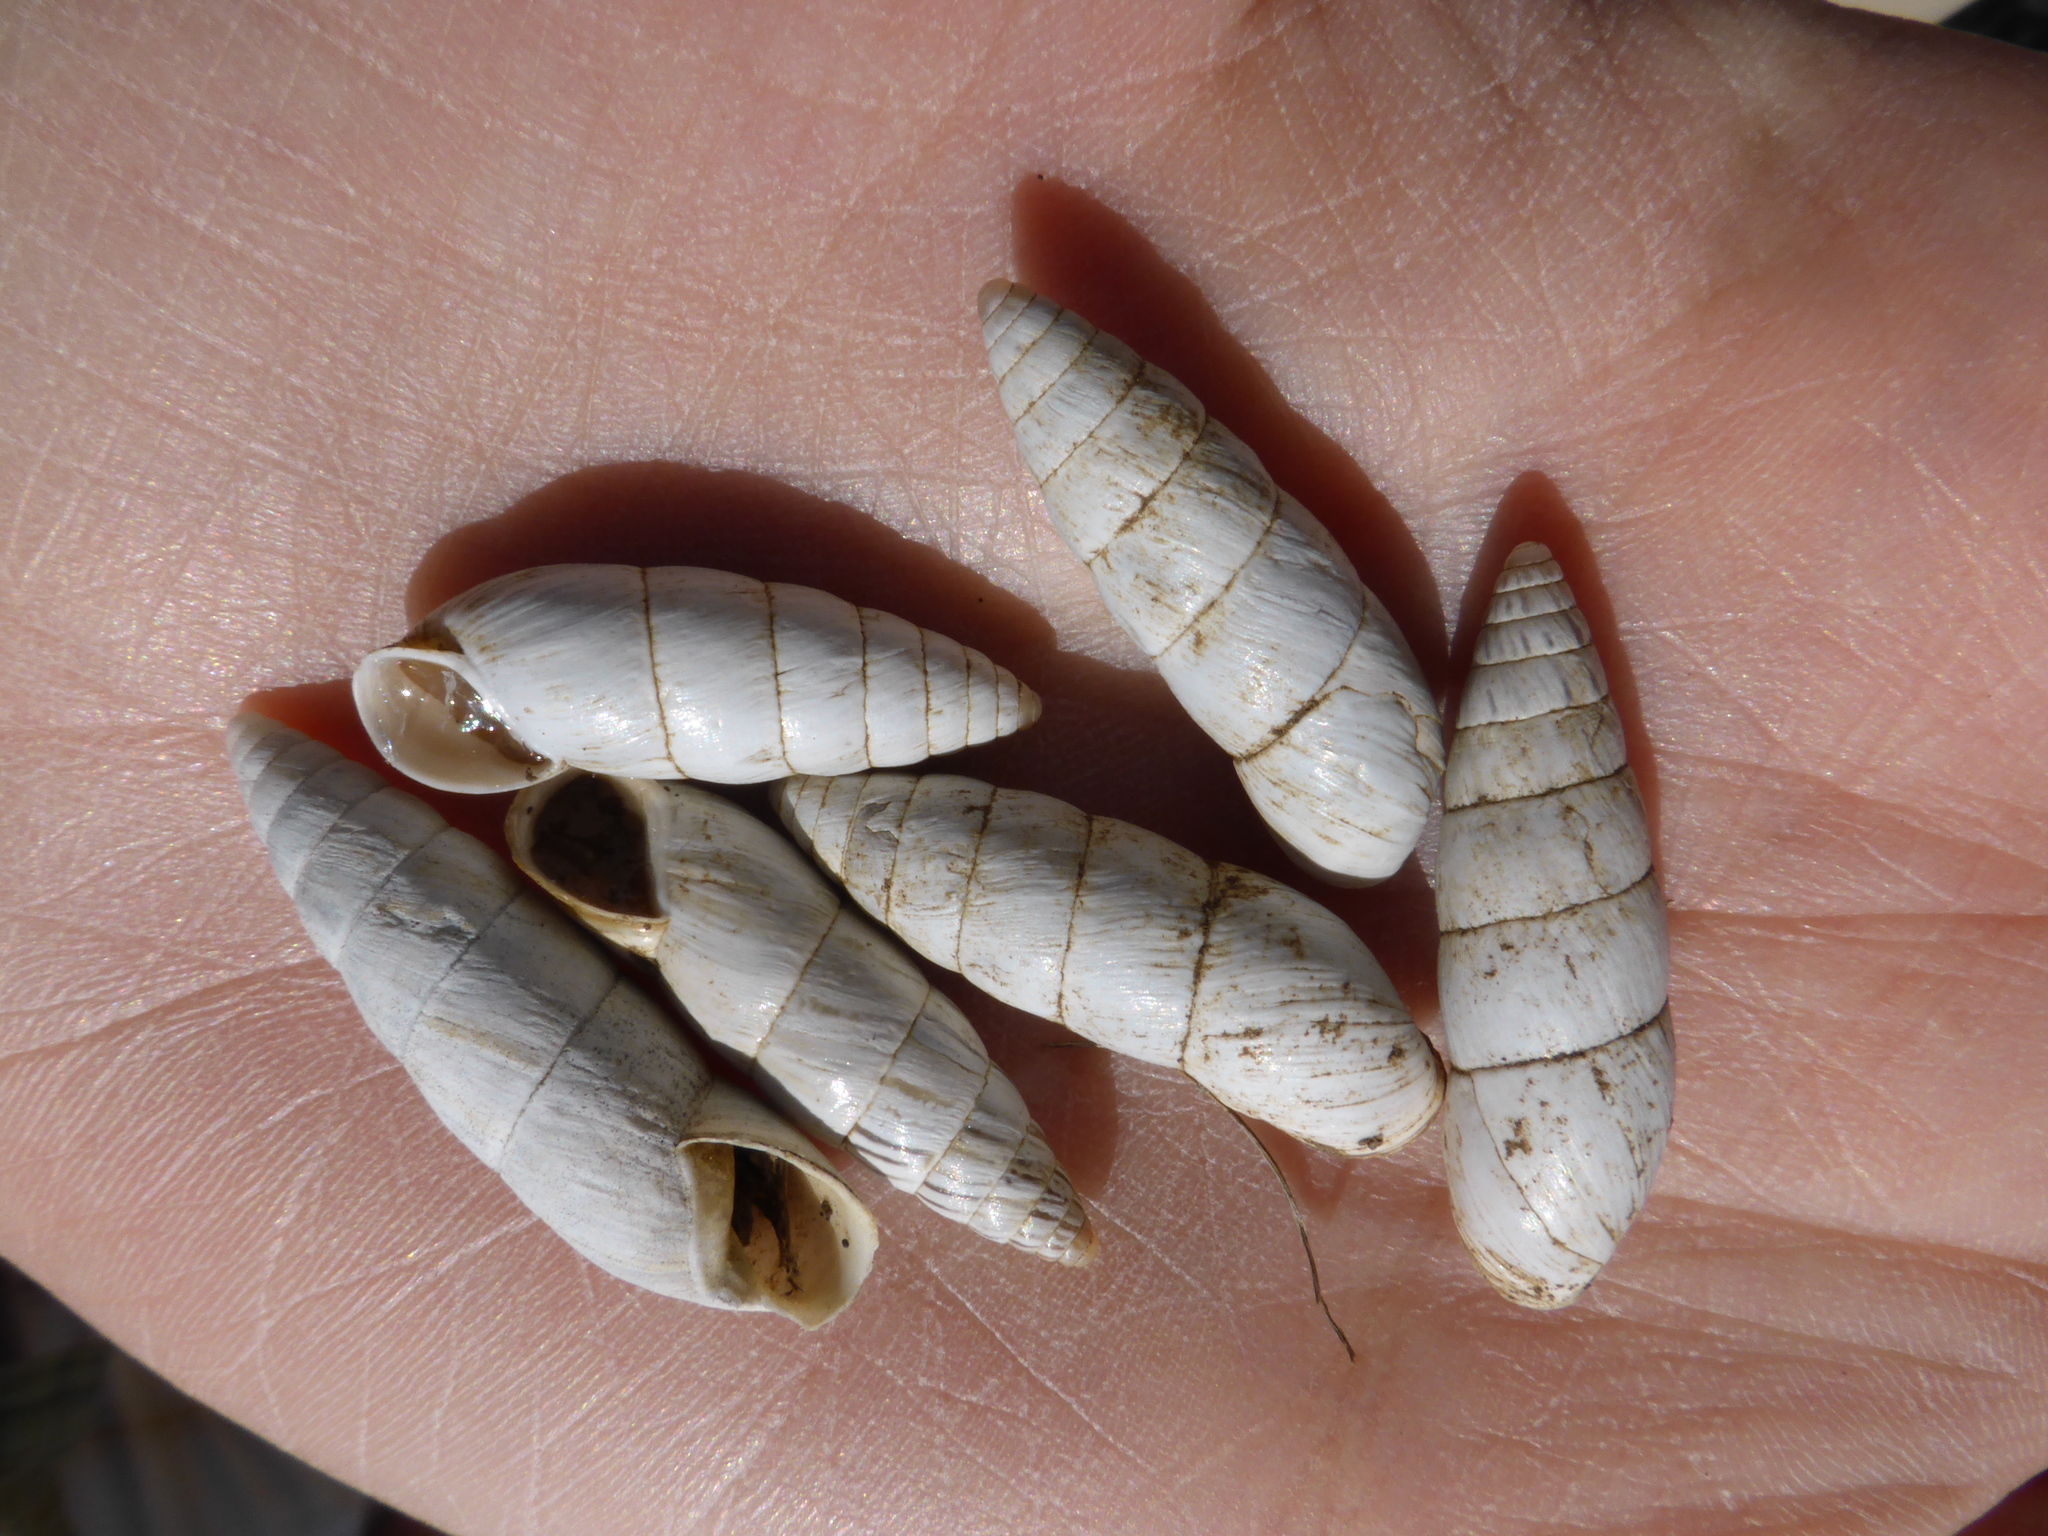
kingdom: Animalia
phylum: Mollusca
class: Gastropoda
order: Stylommatophora
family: Enidae
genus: Brephulopsis
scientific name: Brephulopsis cylindrica
